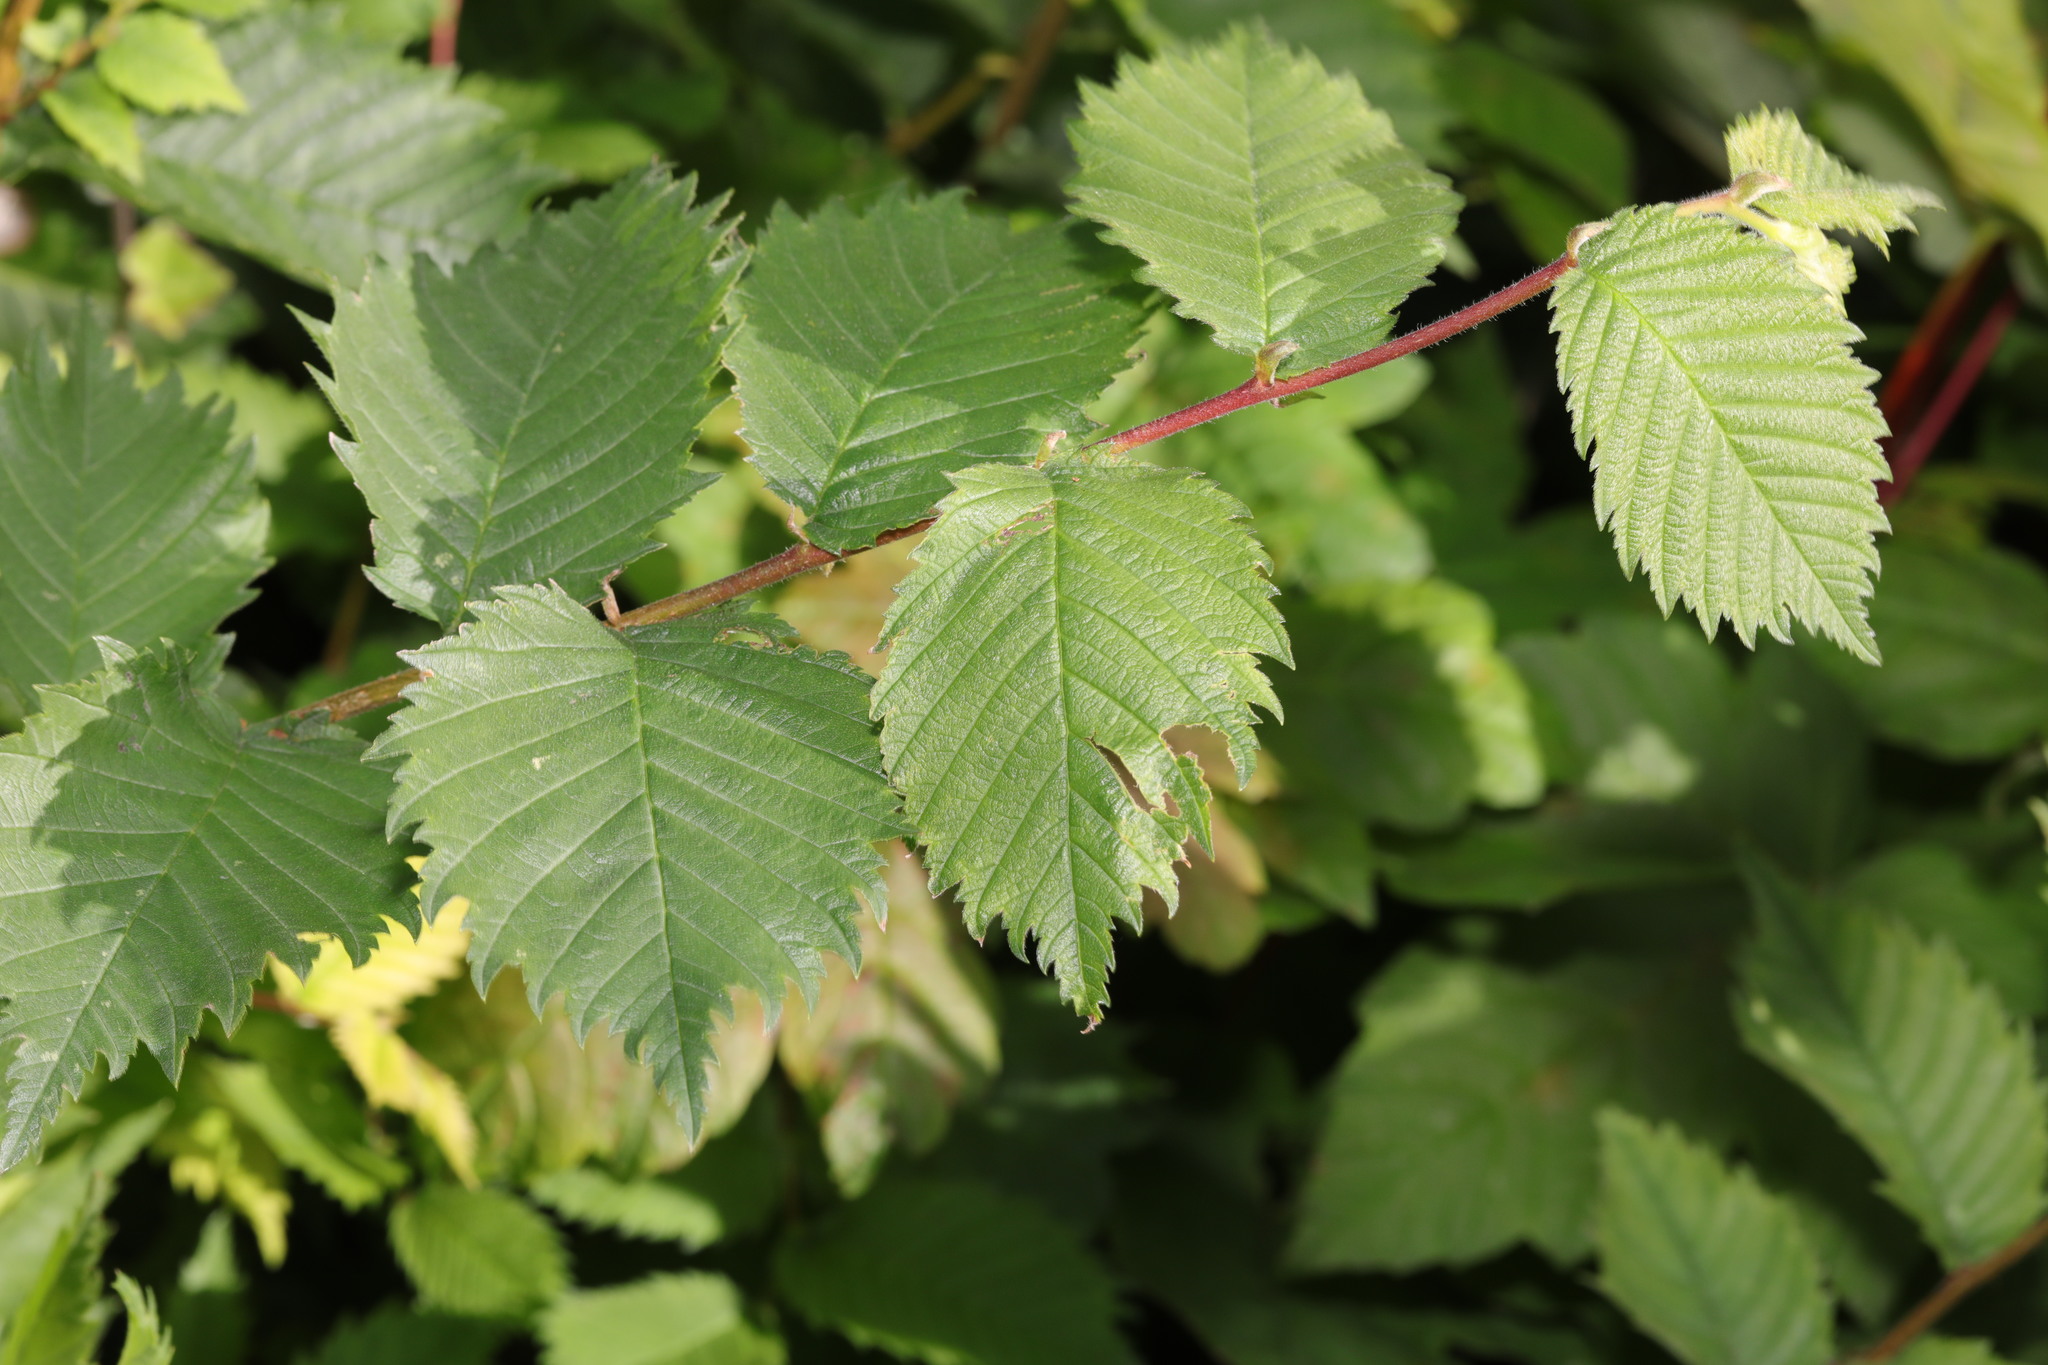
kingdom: Plantae
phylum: Tracheophyta
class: Magnoliopsida
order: Rosales
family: Ulmaceae
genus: Ulmus
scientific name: Ulmus minor
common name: Small-leaved elm
